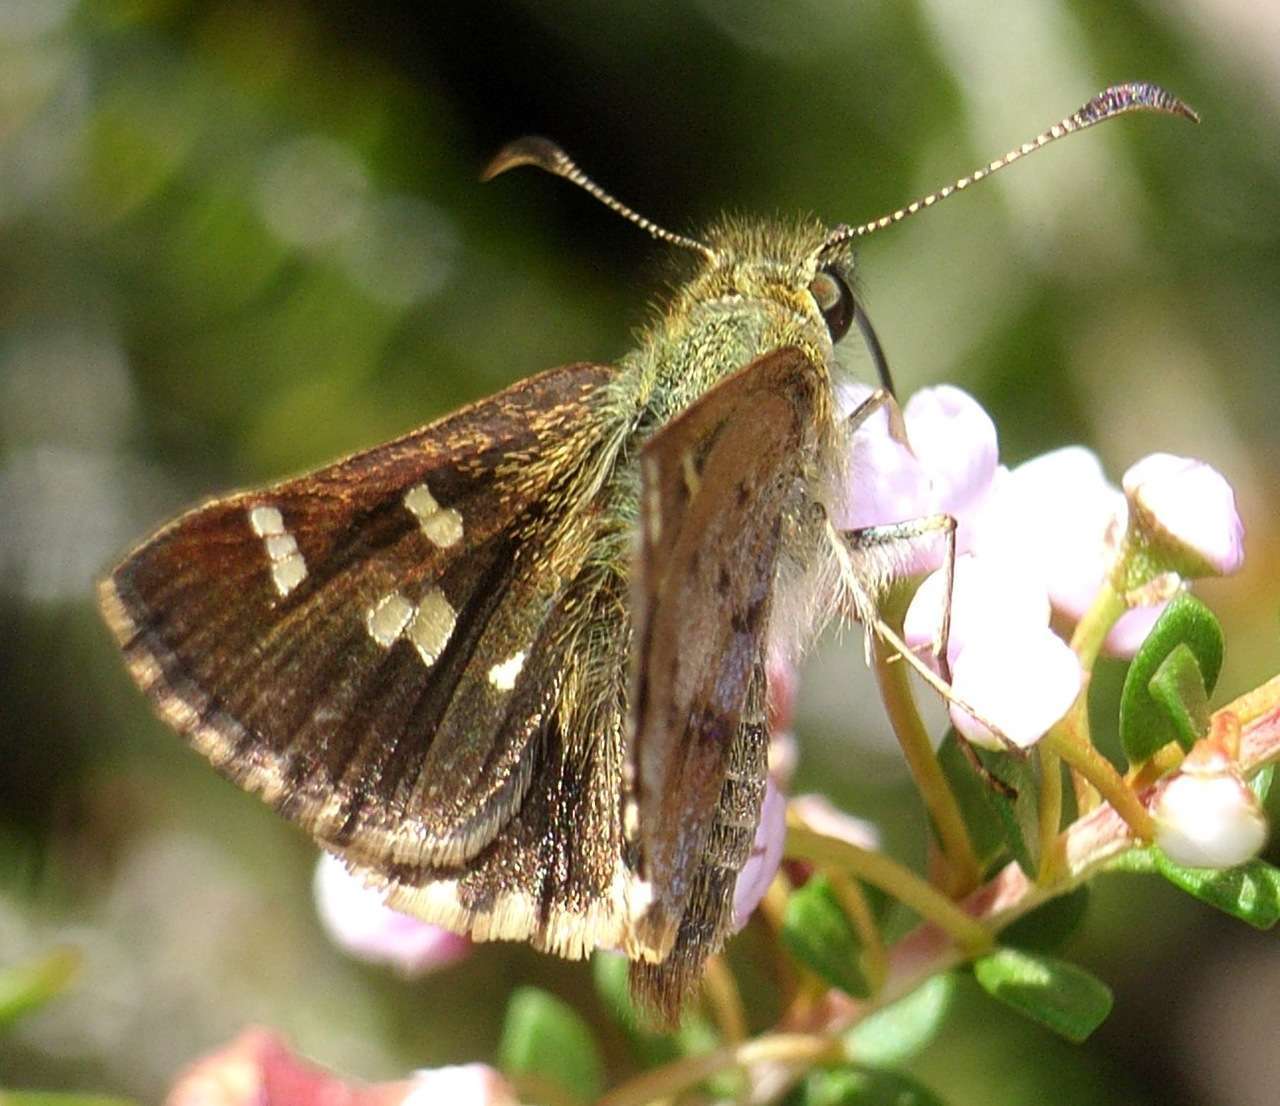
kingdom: Animalia
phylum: Arthropoda
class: Insecta
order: Lepidoptera
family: Hesperiidae
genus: Dispar
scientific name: Dispar compacta
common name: Barred skipper
